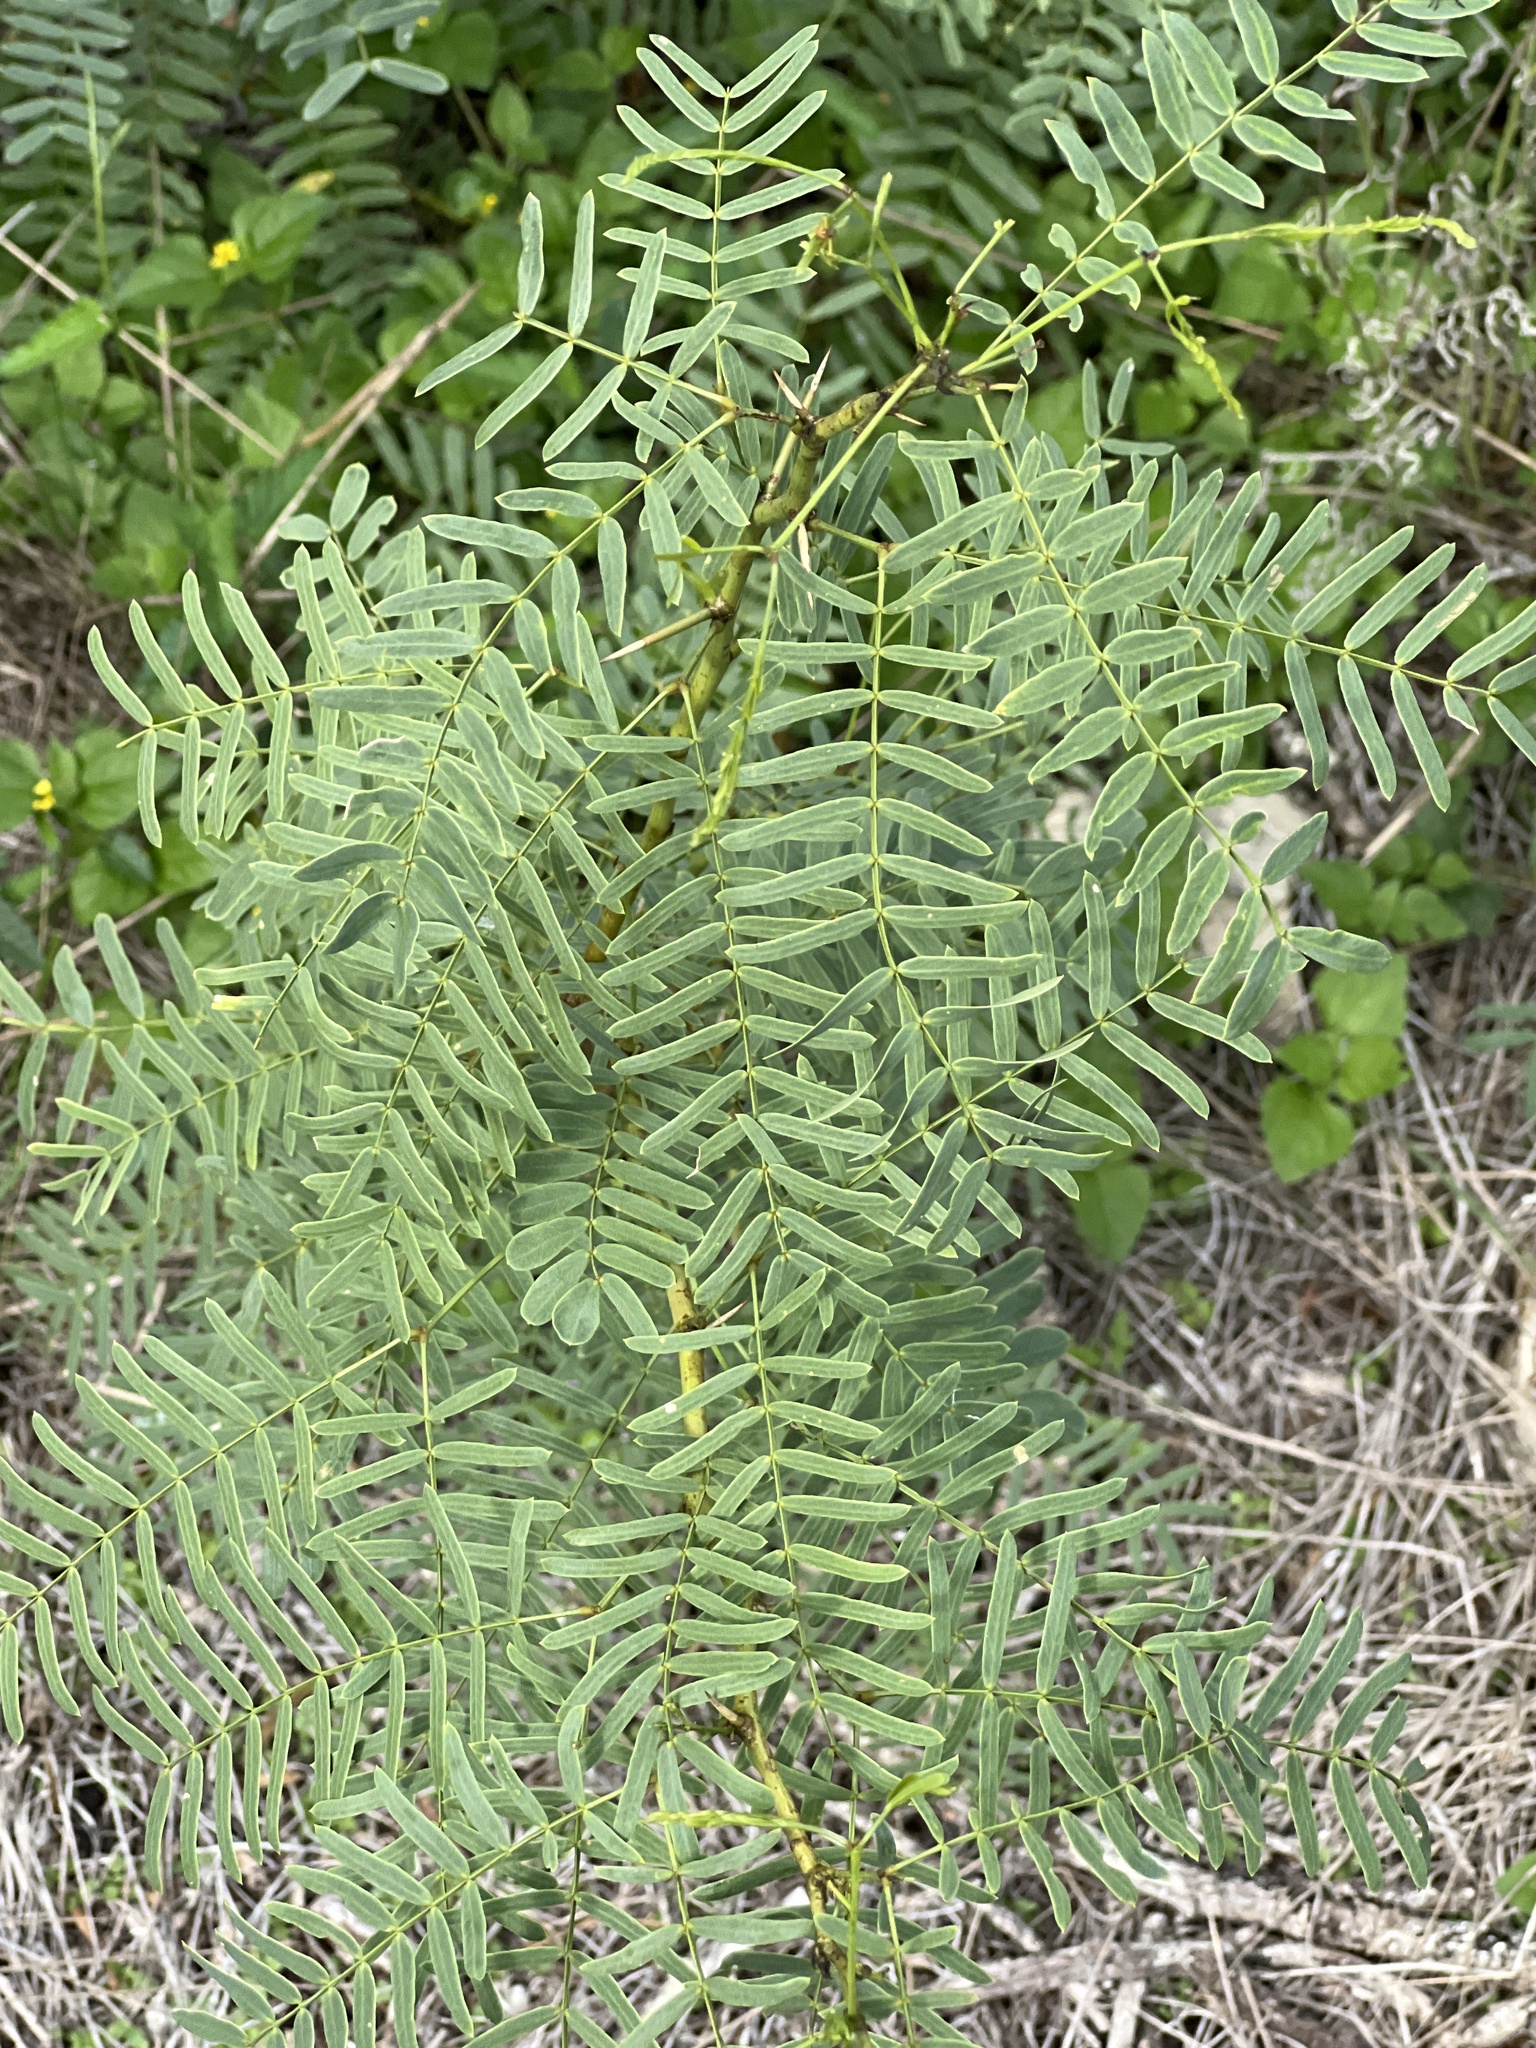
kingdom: Plantae
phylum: Tracheophyta
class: Magnoliopsida
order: Fabales
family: Fabaceae
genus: Prosopis
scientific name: Prosopis glandulosa
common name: Honey mesquite
